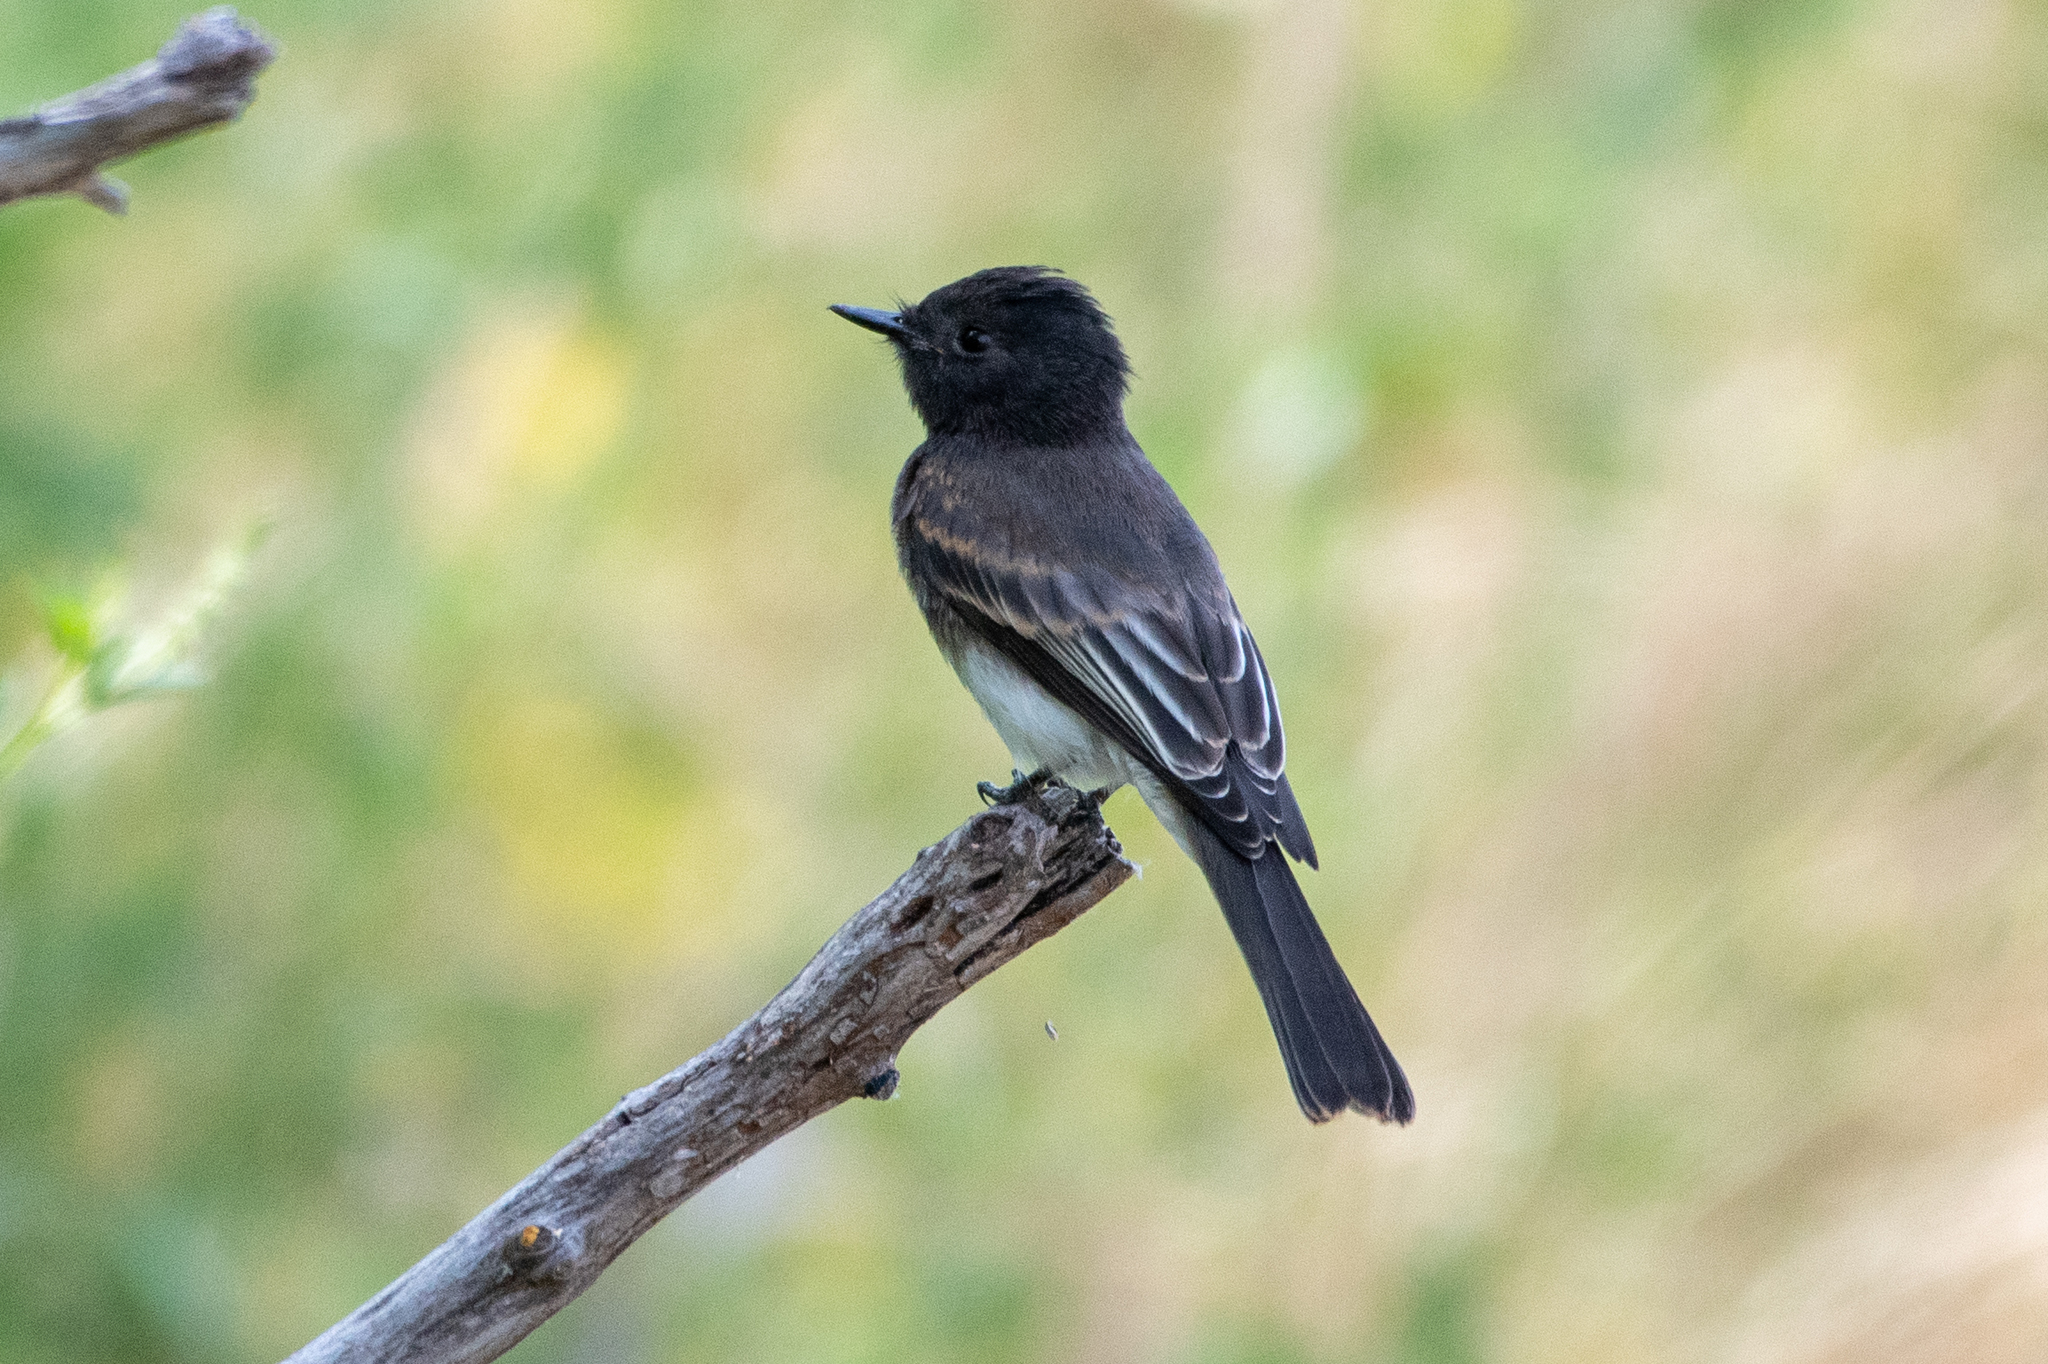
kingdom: Animalia
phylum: Chordata
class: Aves
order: Passeriformes
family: Tyrannidae
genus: Sayornis
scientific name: Sayornis nigricans
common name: Black phoebe
